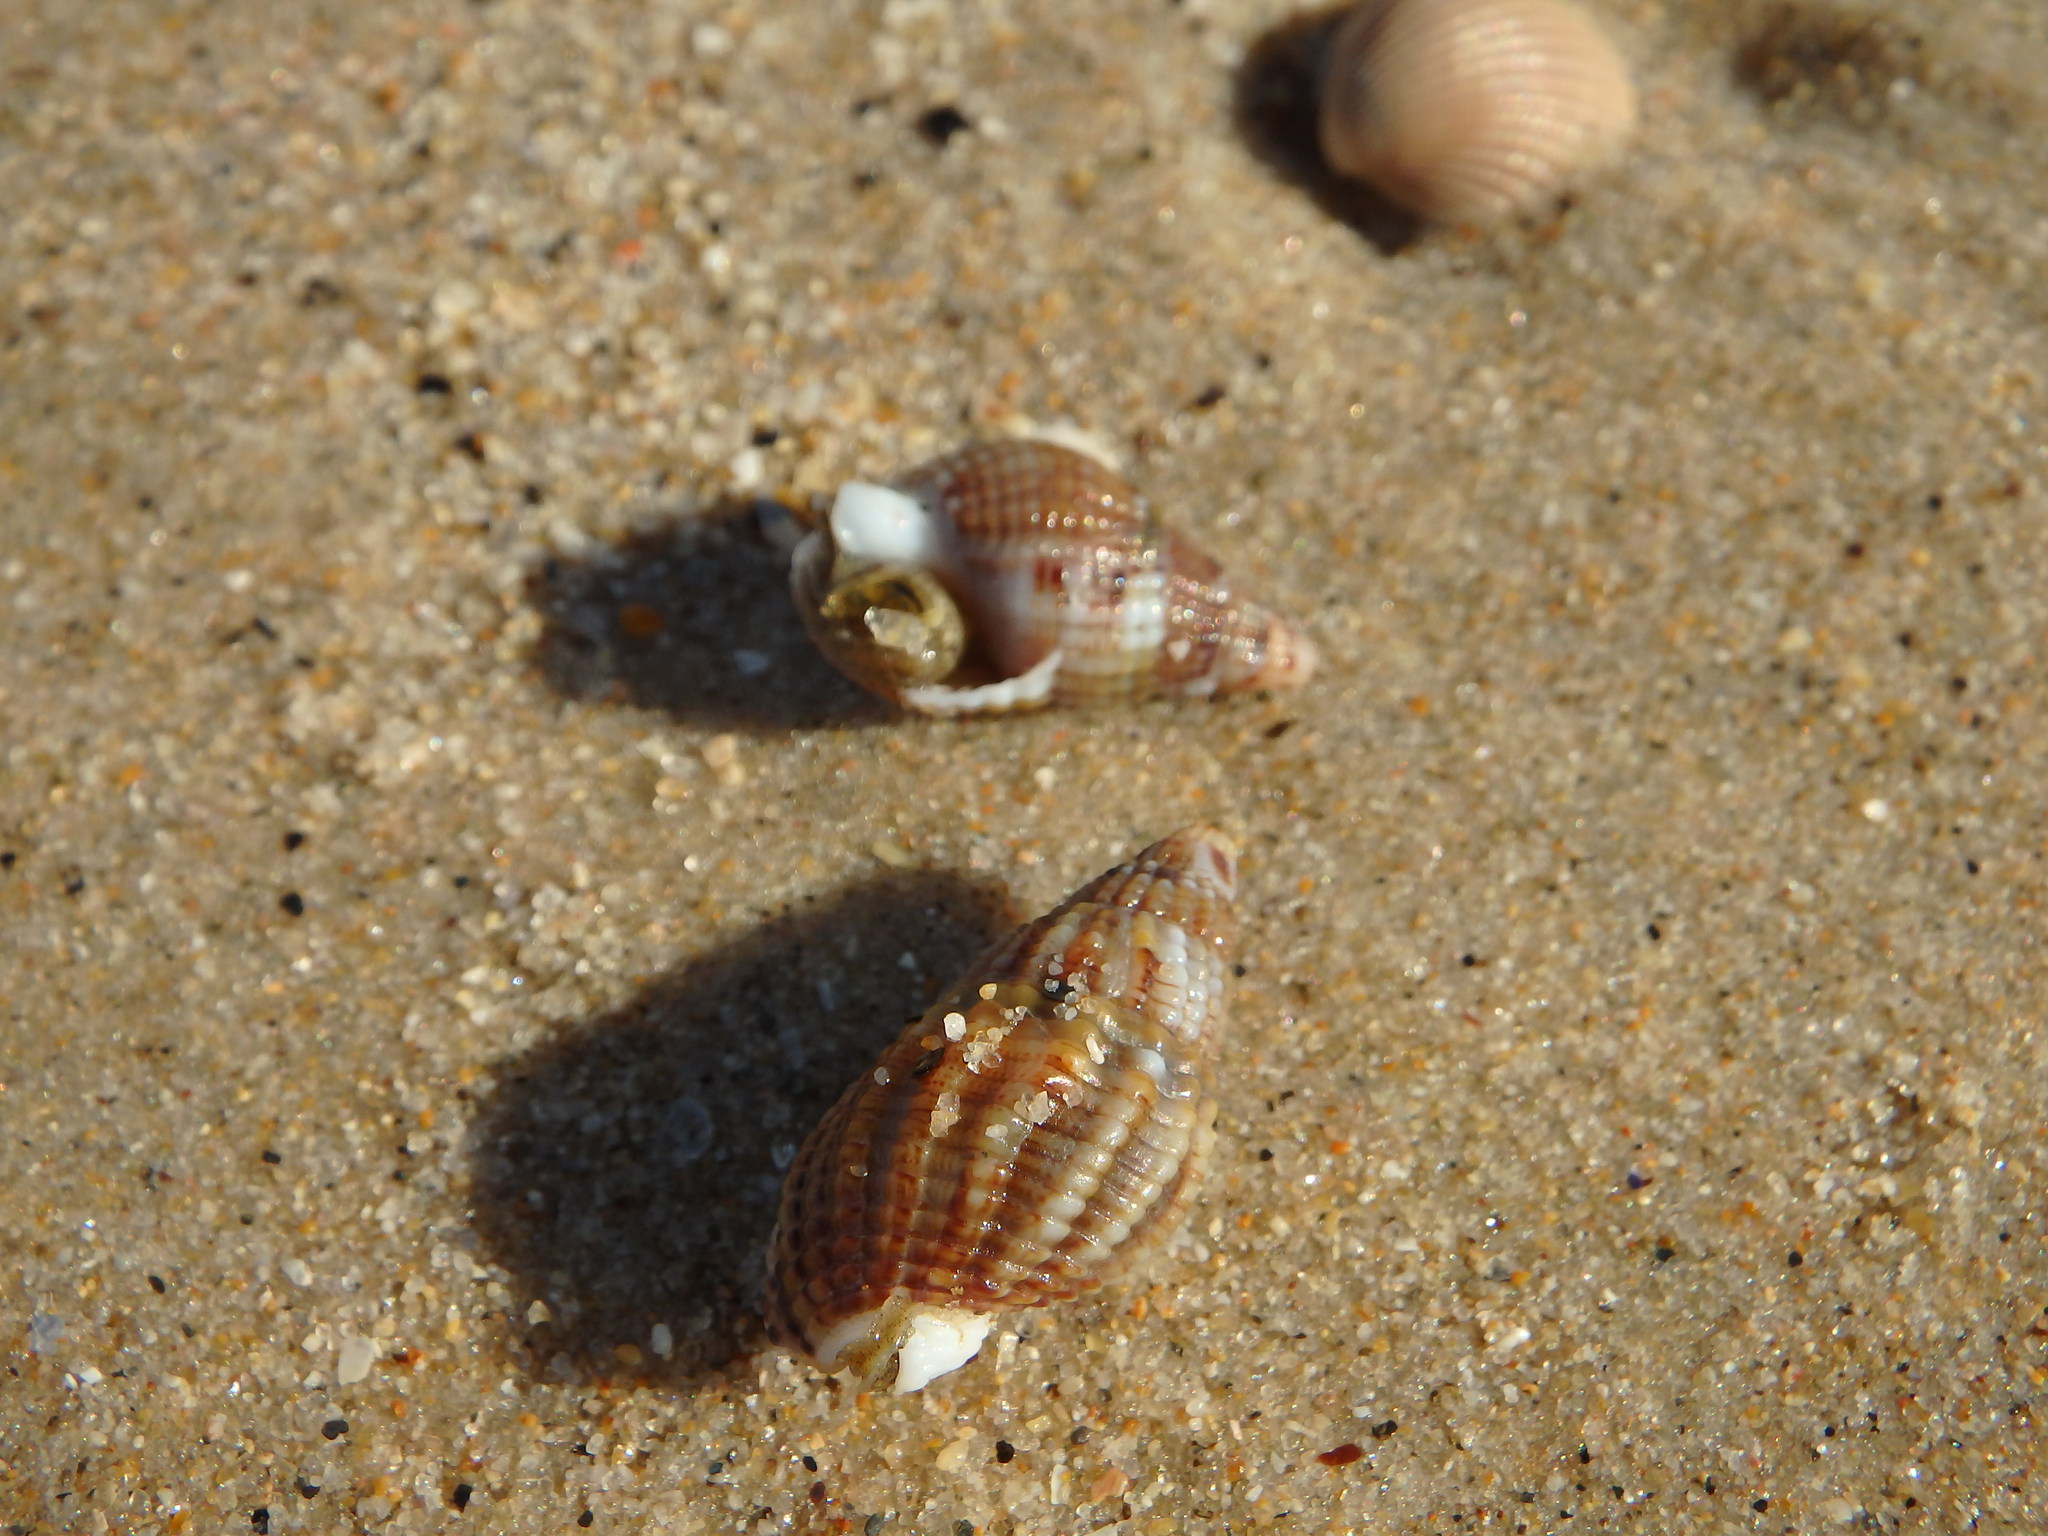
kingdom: Animalia
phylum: Mollusca
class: Gastropoda
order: Neogastropoda
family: Nassariidae
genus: Tritia
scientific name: Tritia reticulata
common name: Netted dog whelk
